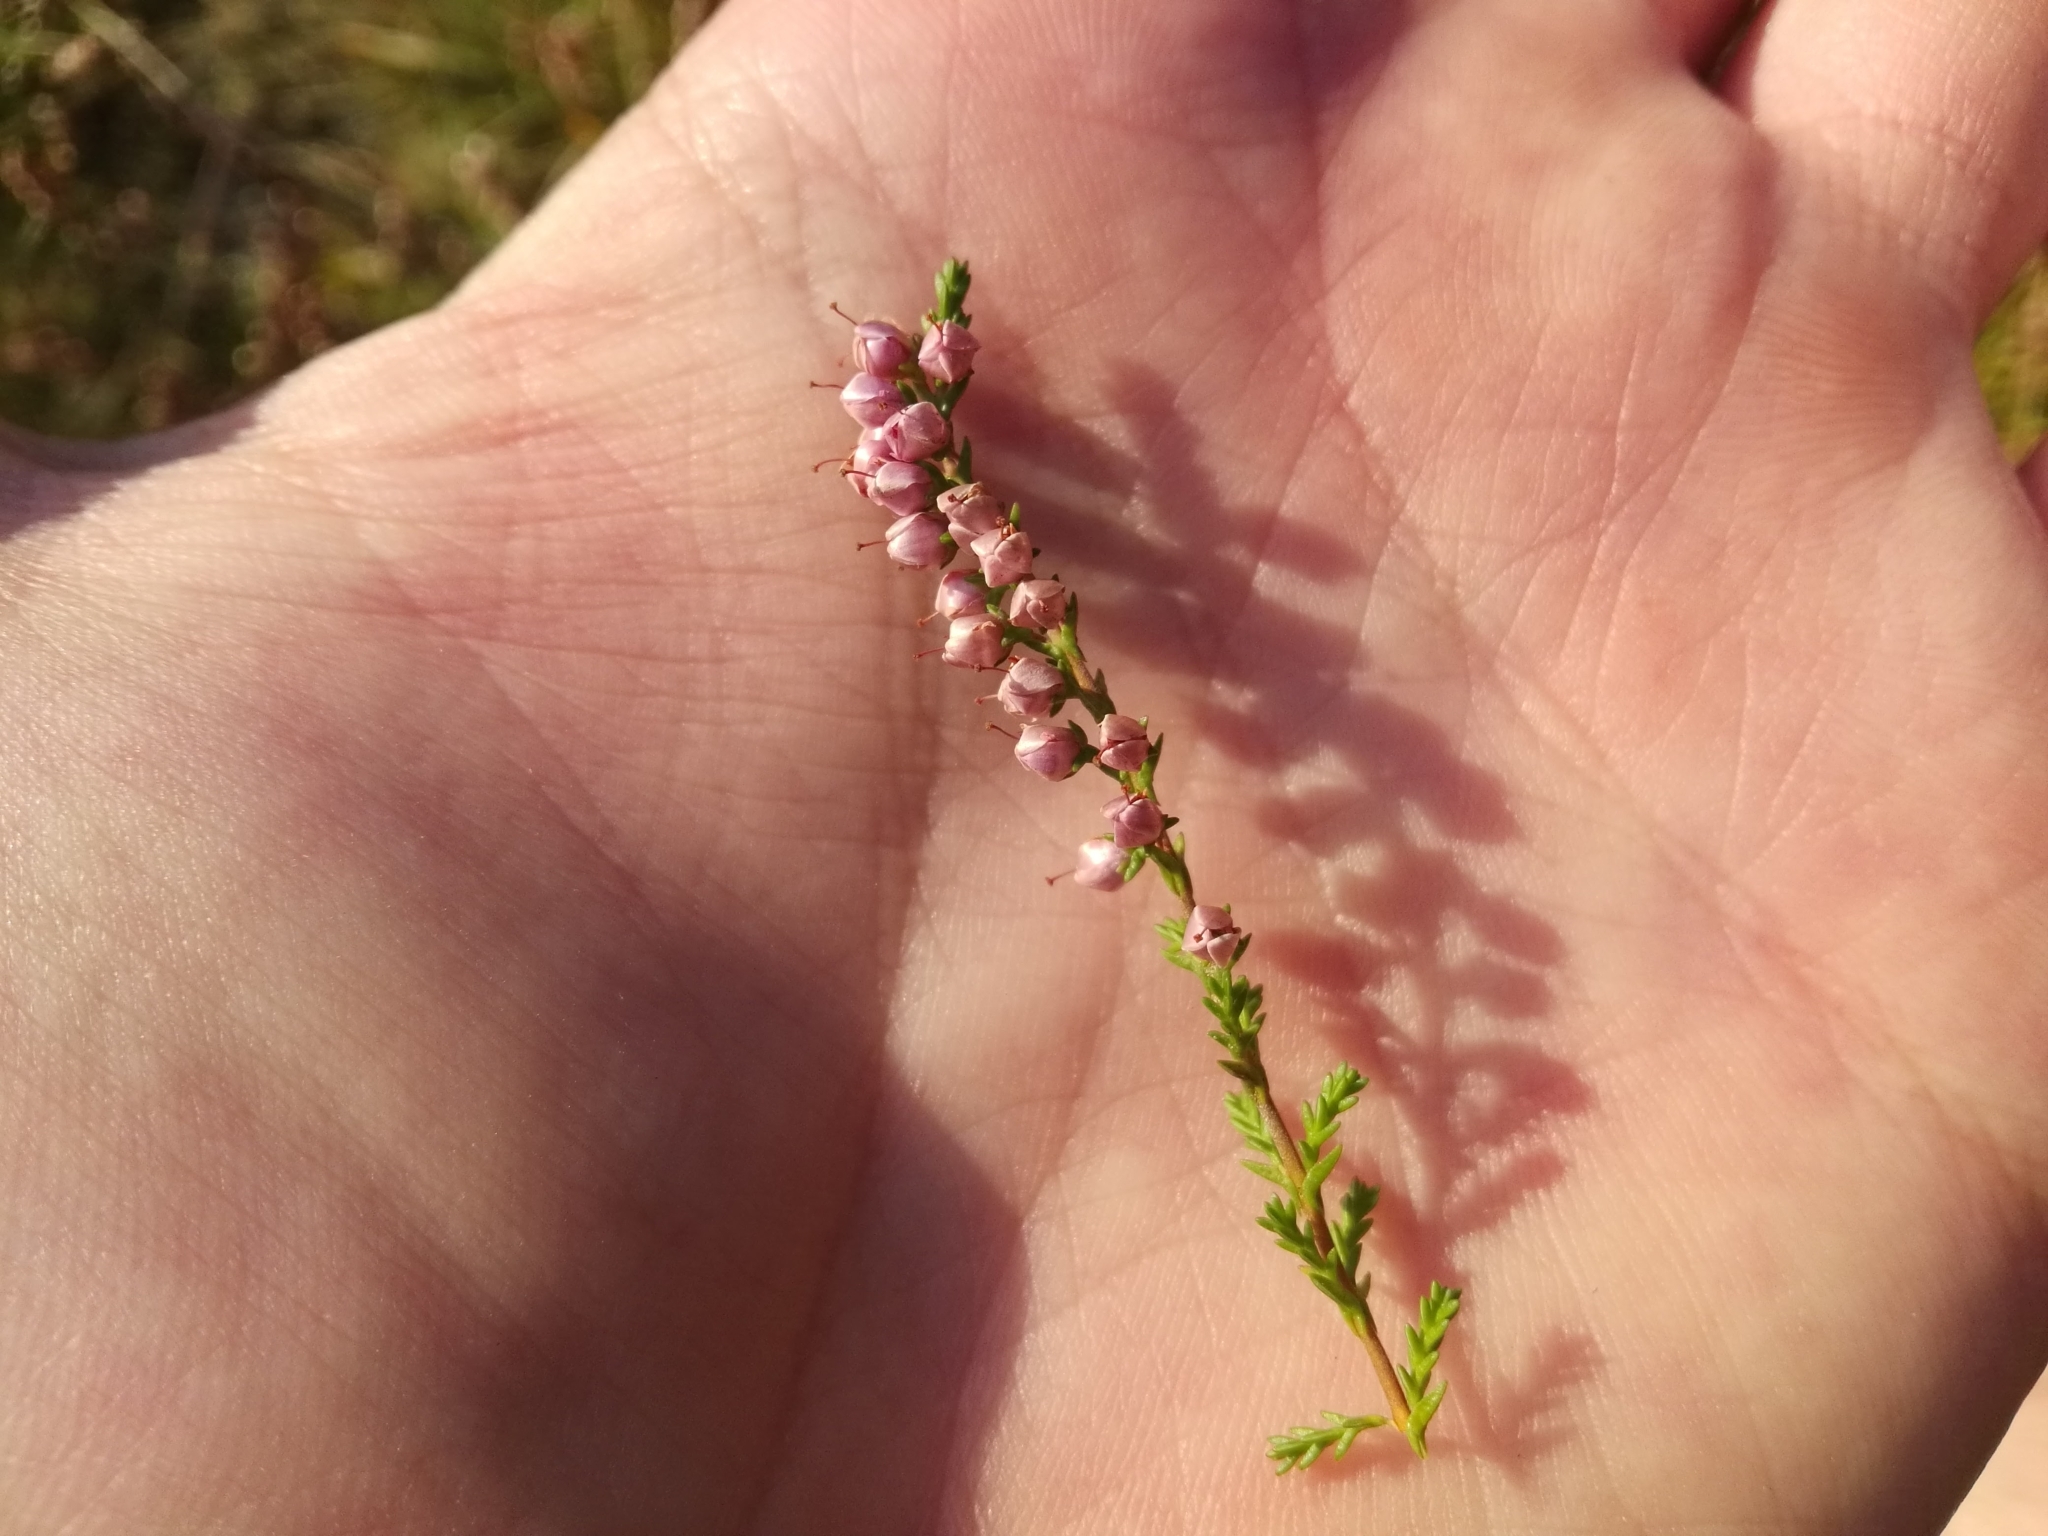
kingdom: Plantae
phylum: Tracheophyta
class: Magnoliopsida
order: Ericales
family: Ericaceae
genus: Calluna
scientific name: Calluna vulgaris
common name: Heather
